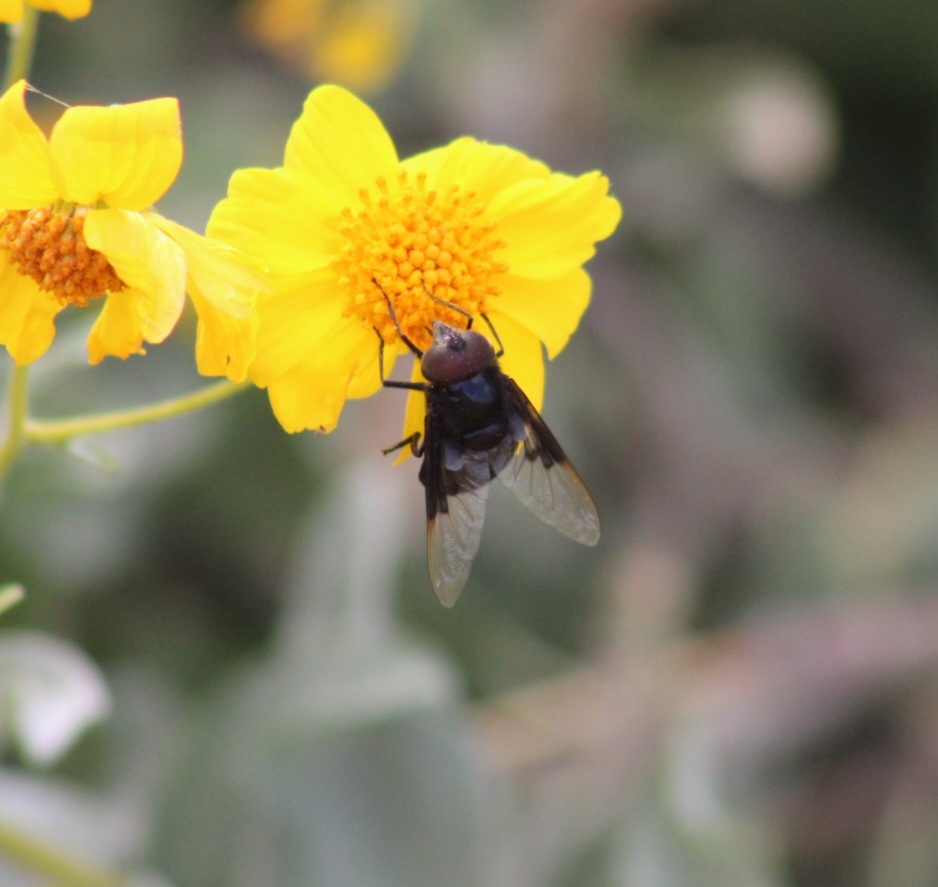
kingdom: Animalia
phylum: Arthropoda
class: Insecta
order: Diptera
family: Syrphidae
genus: Copestylum
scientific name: Copestylum
